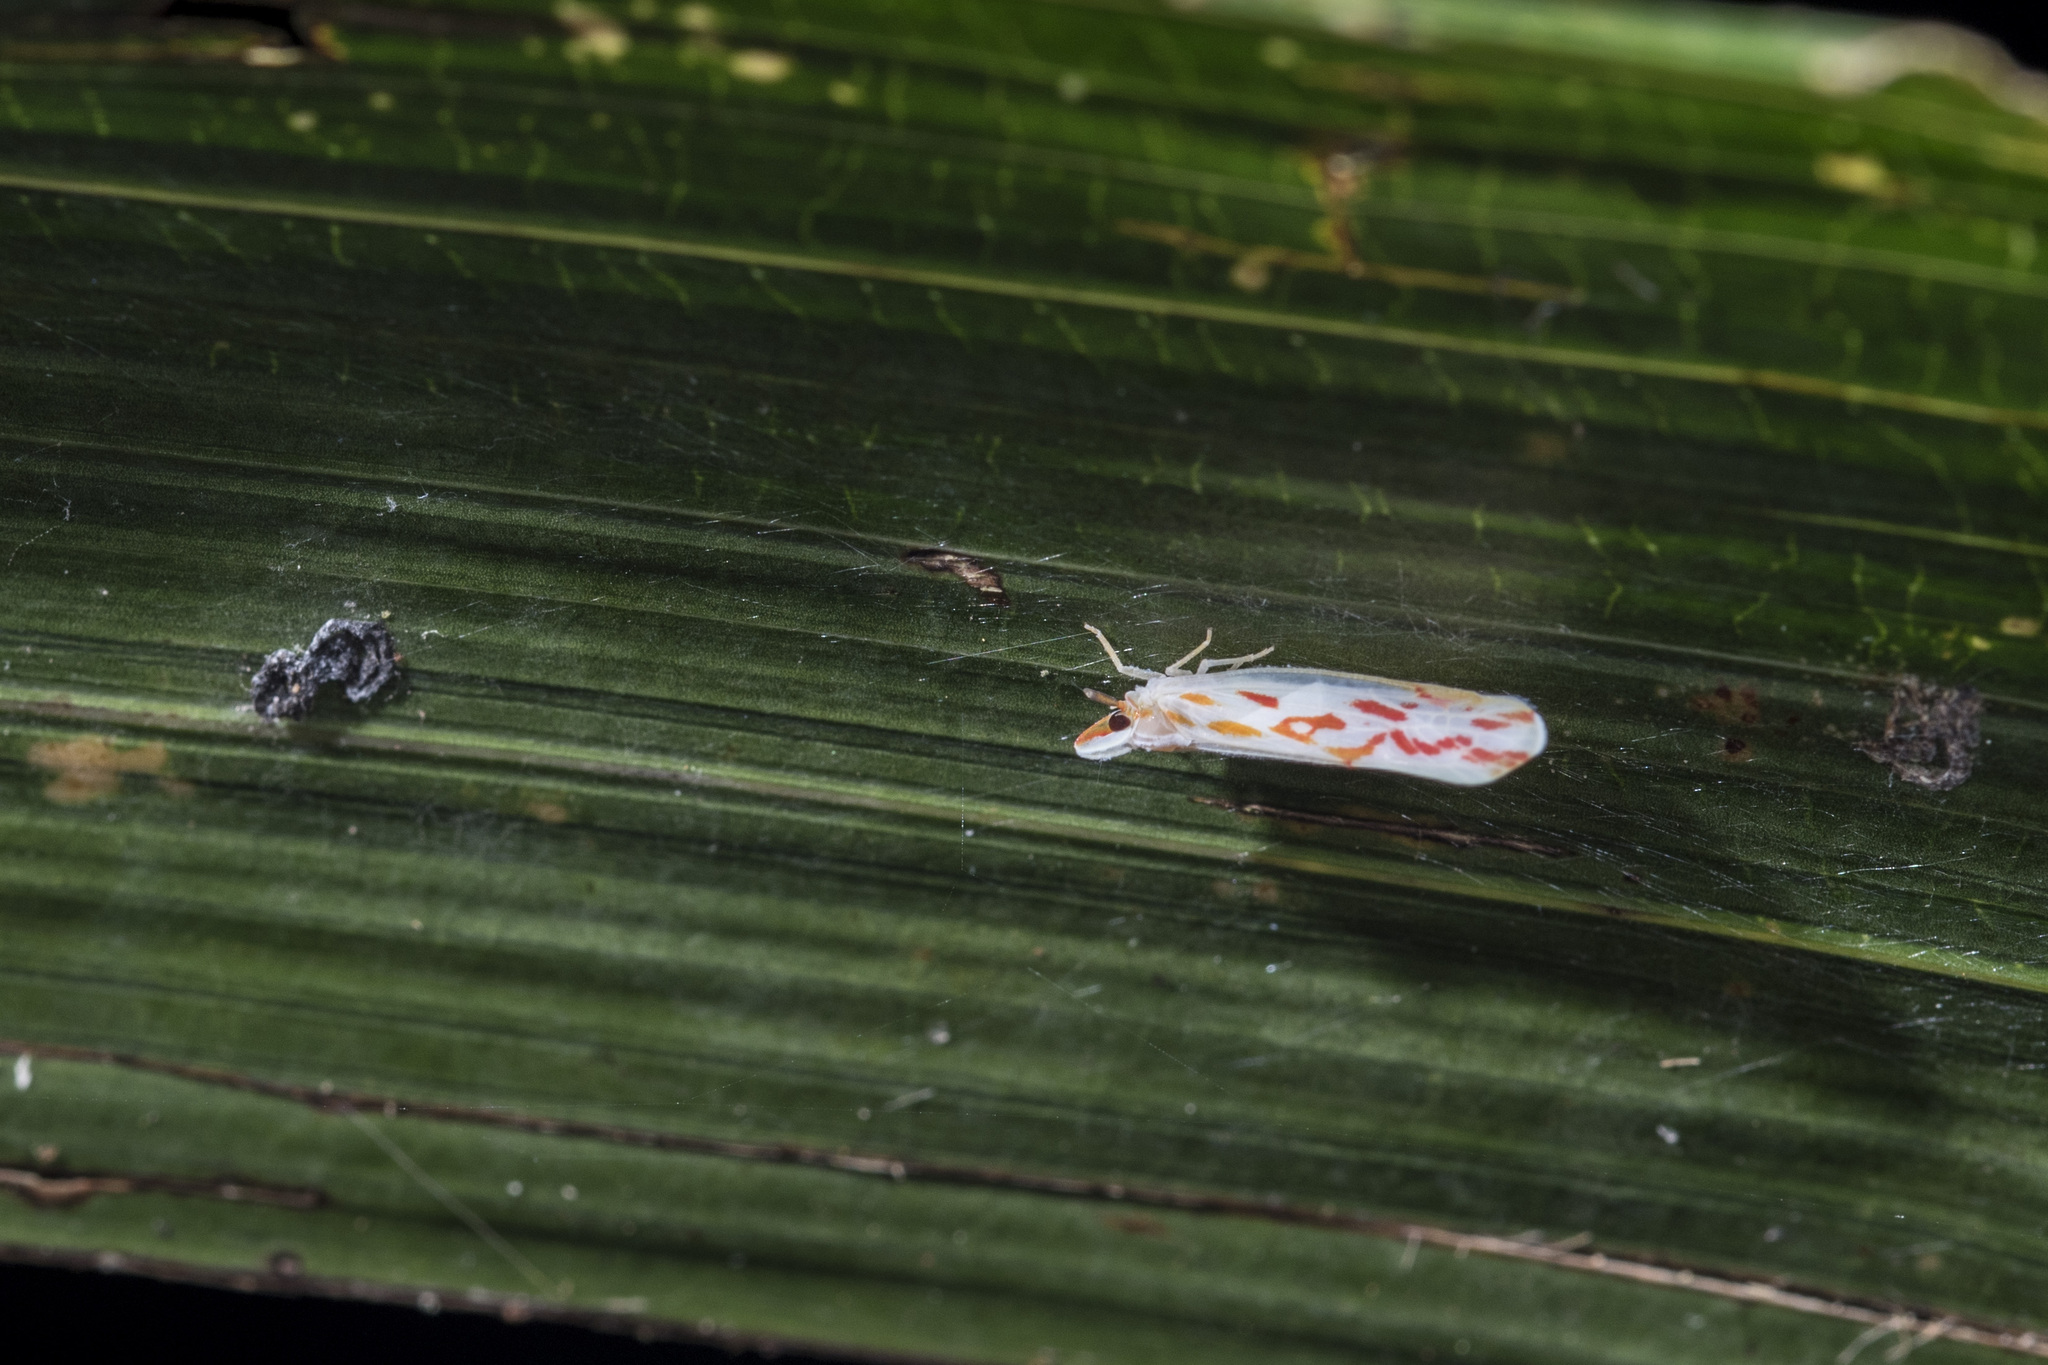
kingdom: Animalia
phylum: Arthropoda
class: Insecta
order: Hemiptera
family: Derbidae
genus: Robigus
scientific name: Robigus flexuosus
